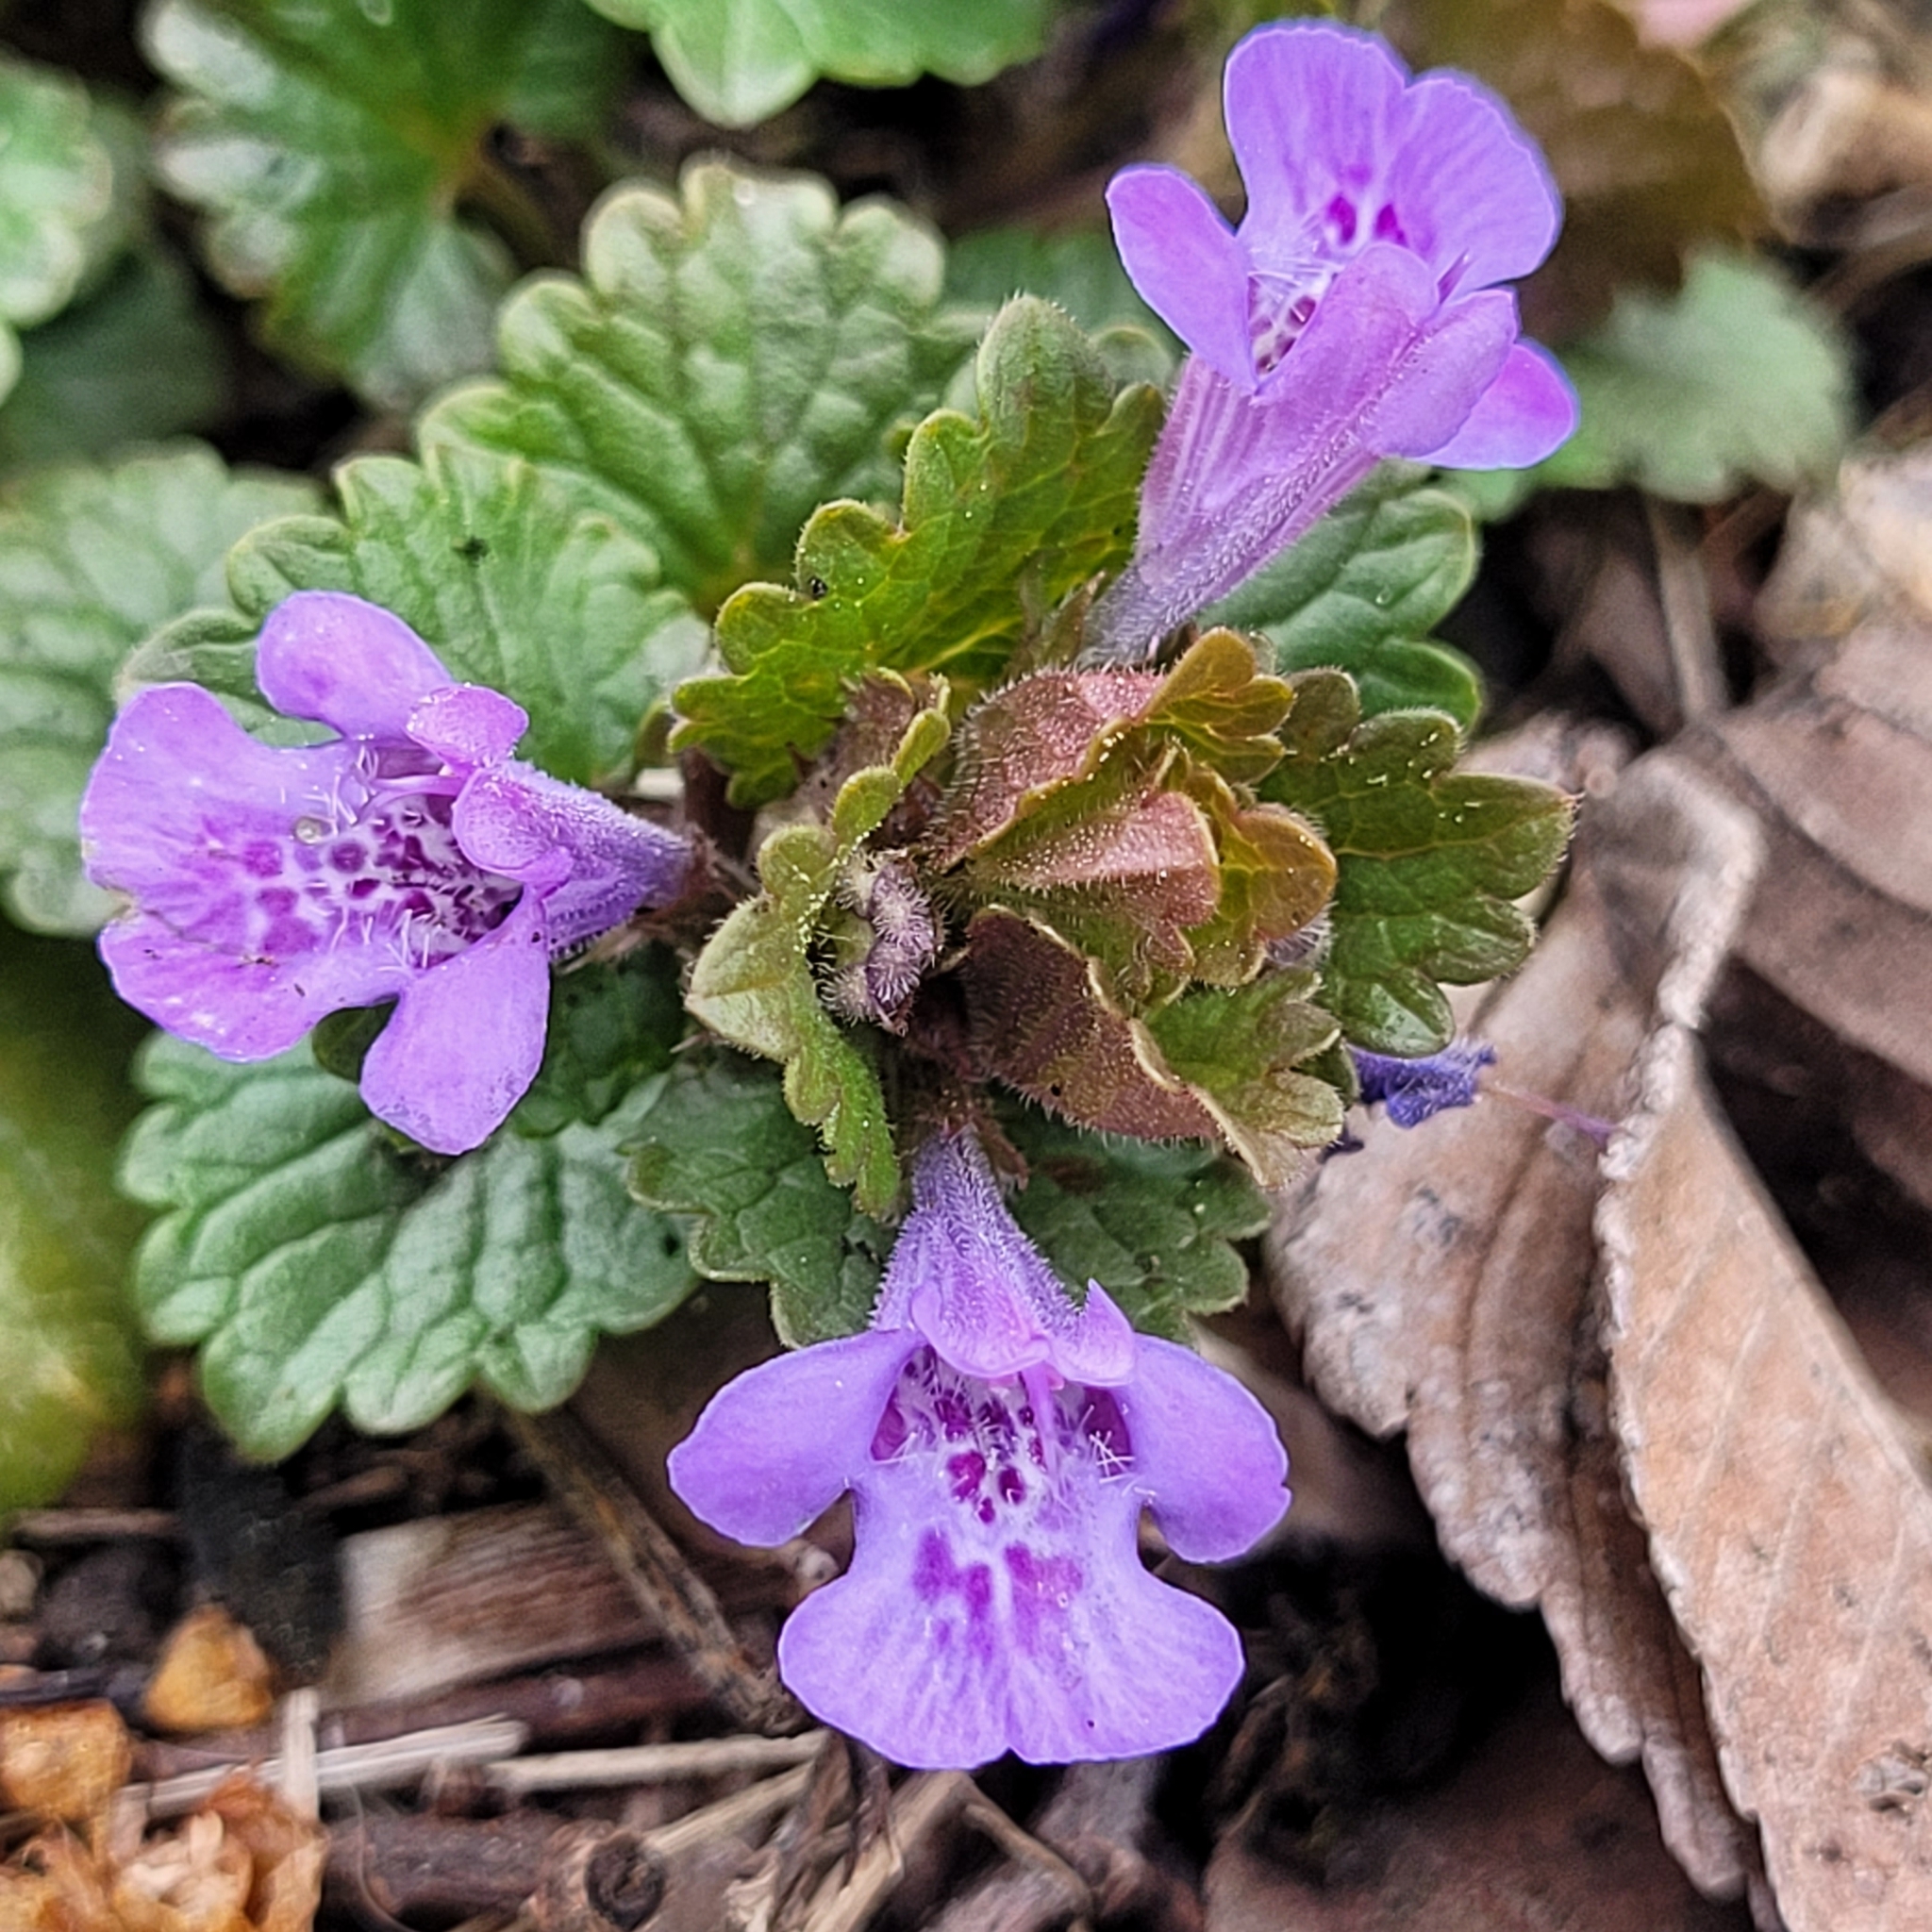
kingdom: Plantae
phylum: Tracheophyta
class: Magnoliopsida
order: Lamiales
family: Lamiaceae
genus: Glechoma
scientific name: Glechoma hederacea
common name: Ground ivy
